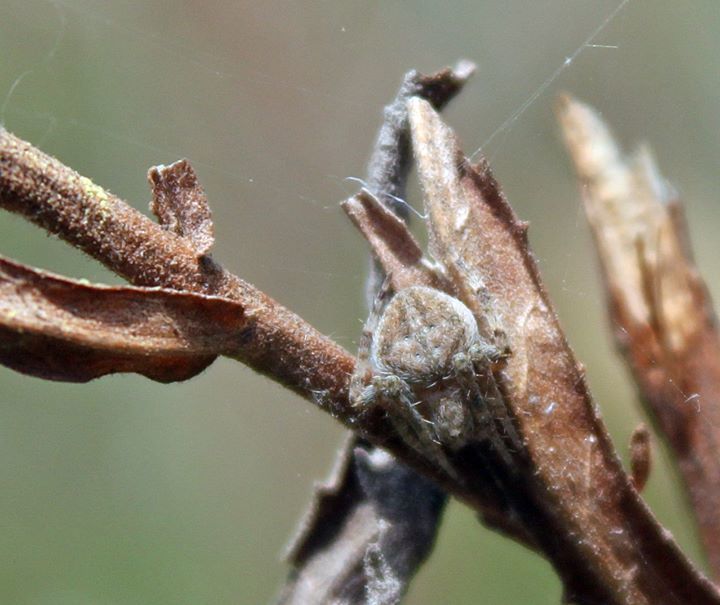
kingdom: Animalia
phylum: Arthropoda
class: Arachnida
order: Araneae
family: Araneidae
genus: Neoscona
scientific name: Neoscona subfusca
